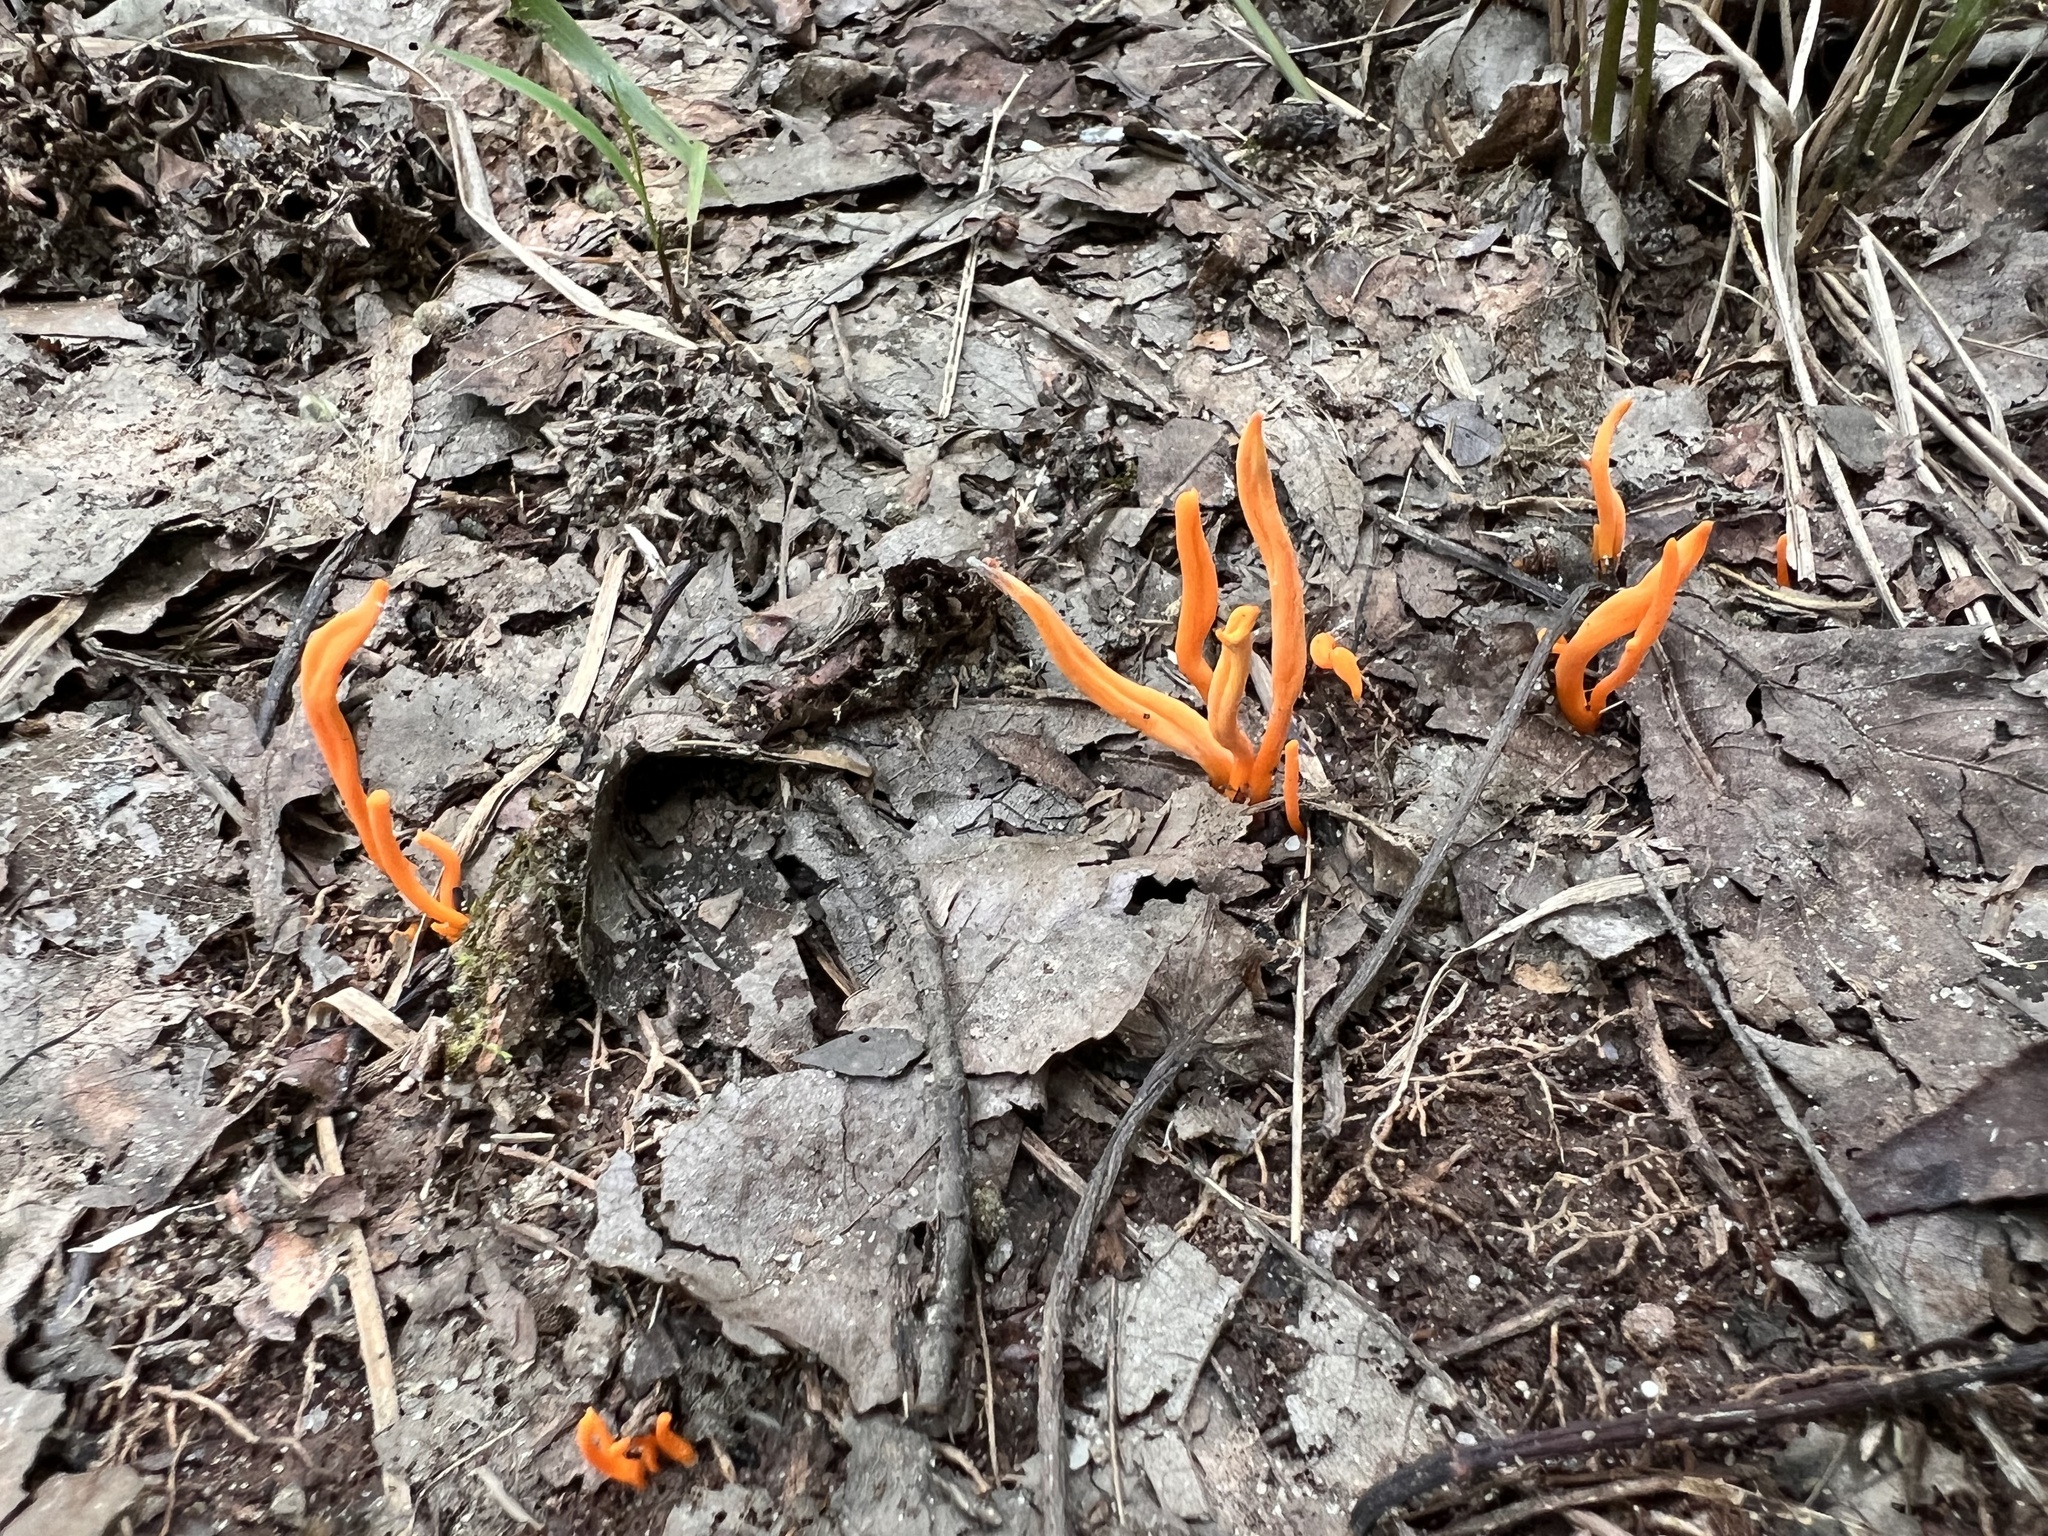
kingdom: Fungi
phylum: Basidiomycota
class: Agaricomycetes
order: Agaricales
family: Clavariaceae
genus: Clavulinopsis
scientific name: Clavulinopsis aurantiocinnabarina
